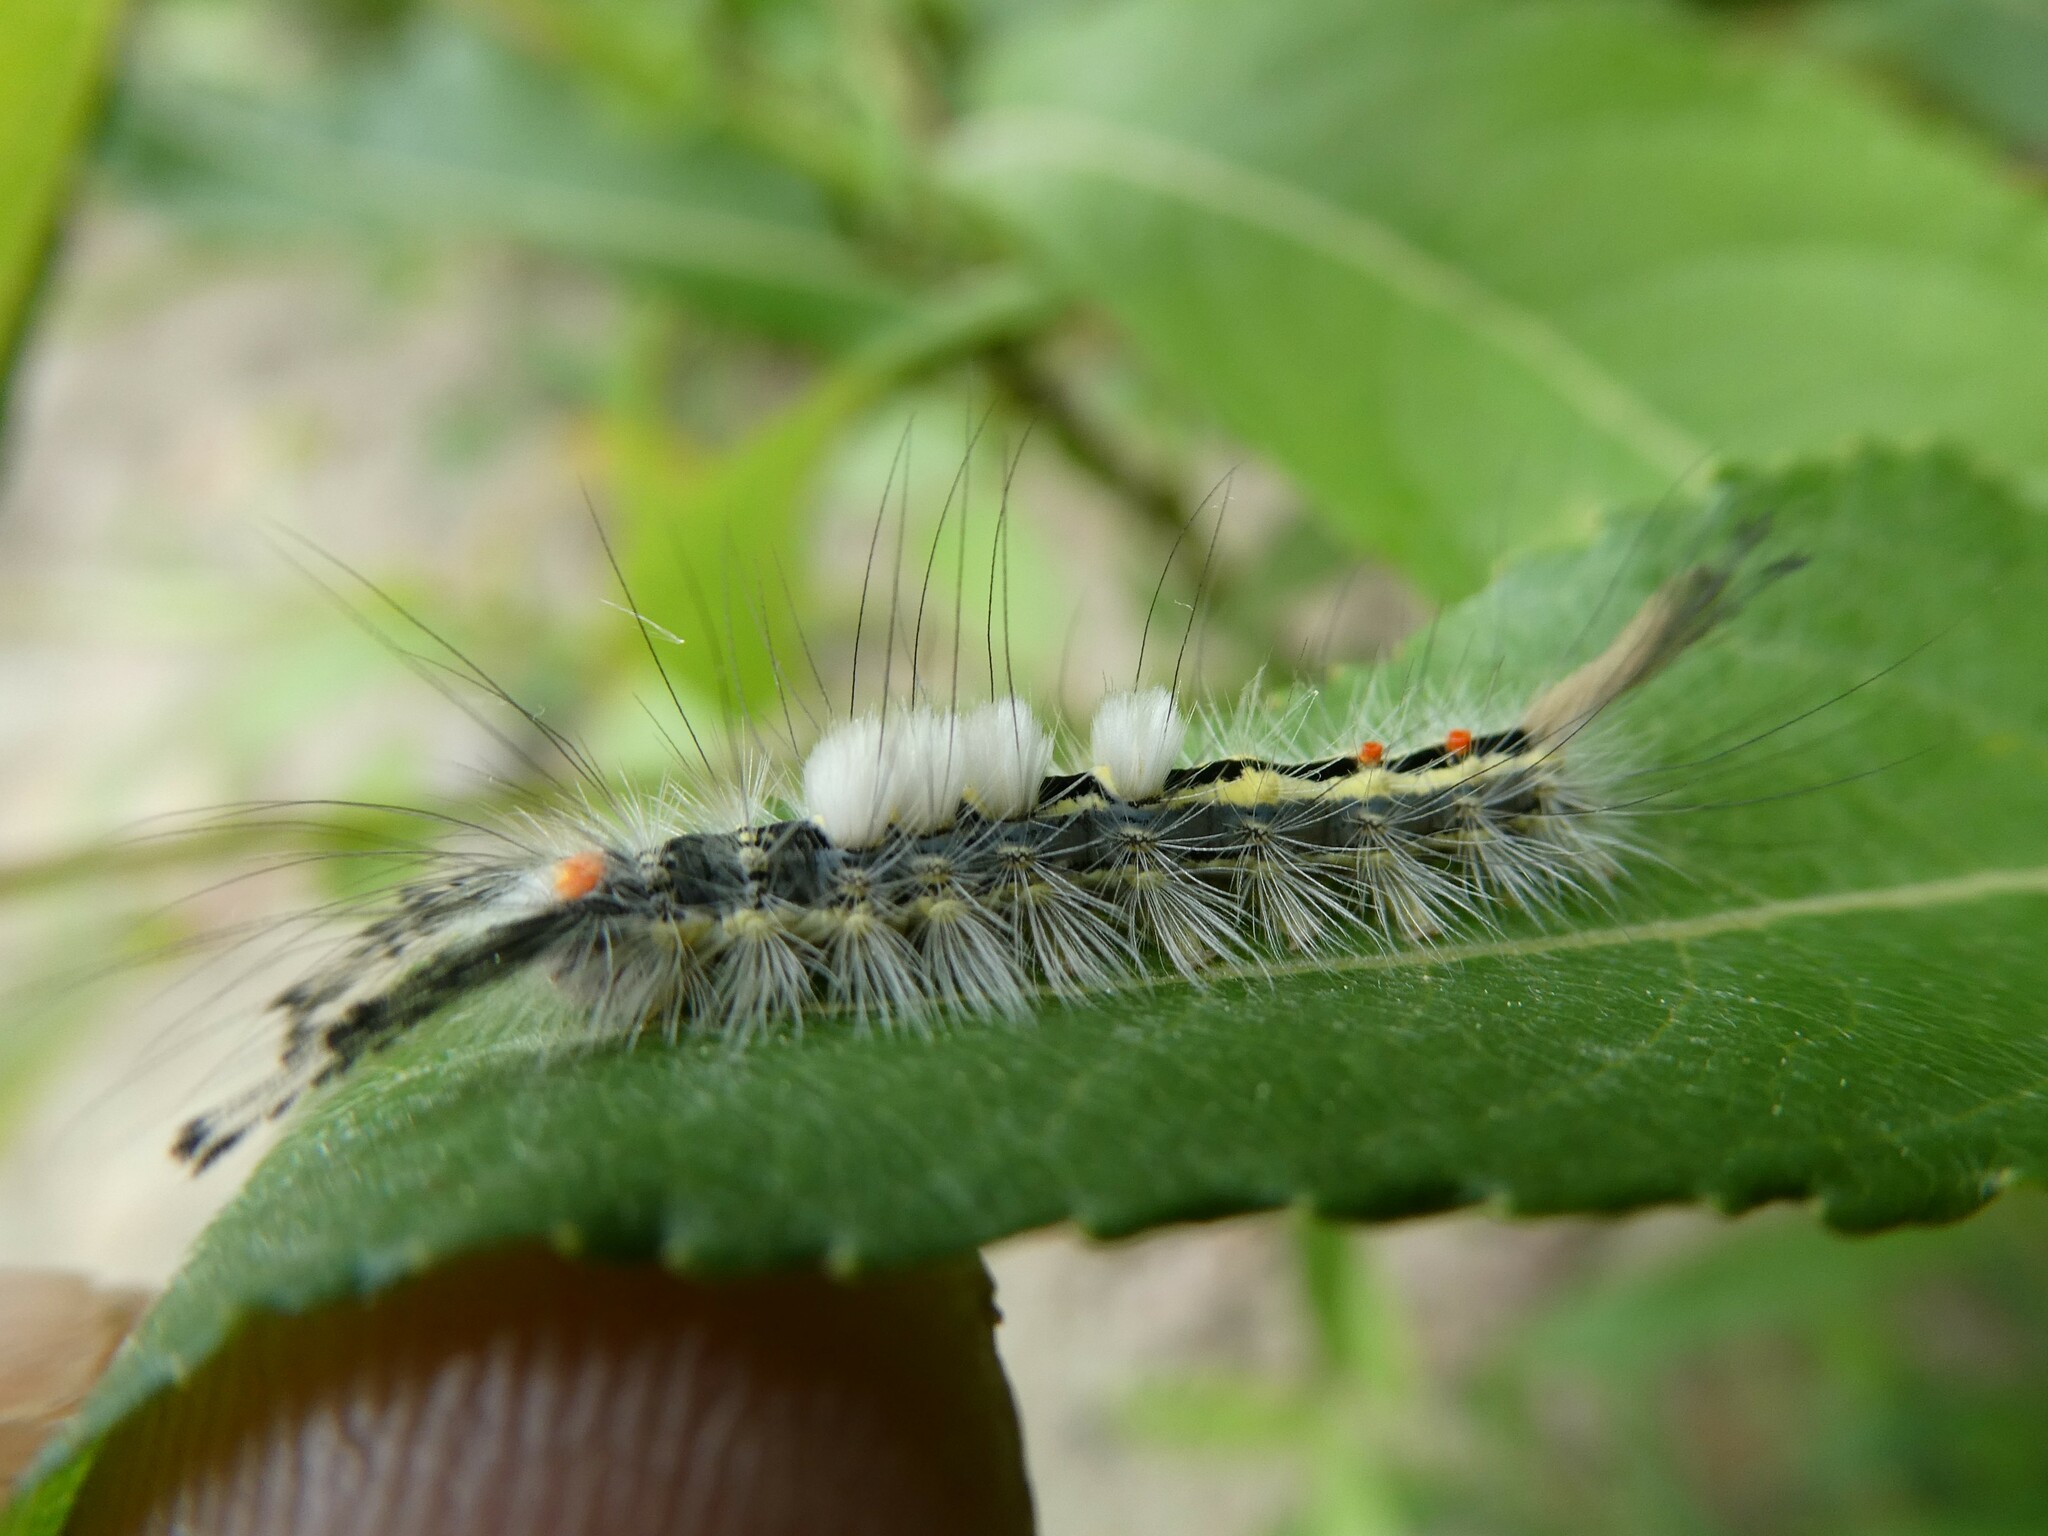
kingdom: Animalia
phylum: Arthropoda
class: Insecta
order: Lepidoptera
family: Erebidae
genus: Orgyia
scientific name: Orgyia leucostigma
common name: White-marked tussock moth
